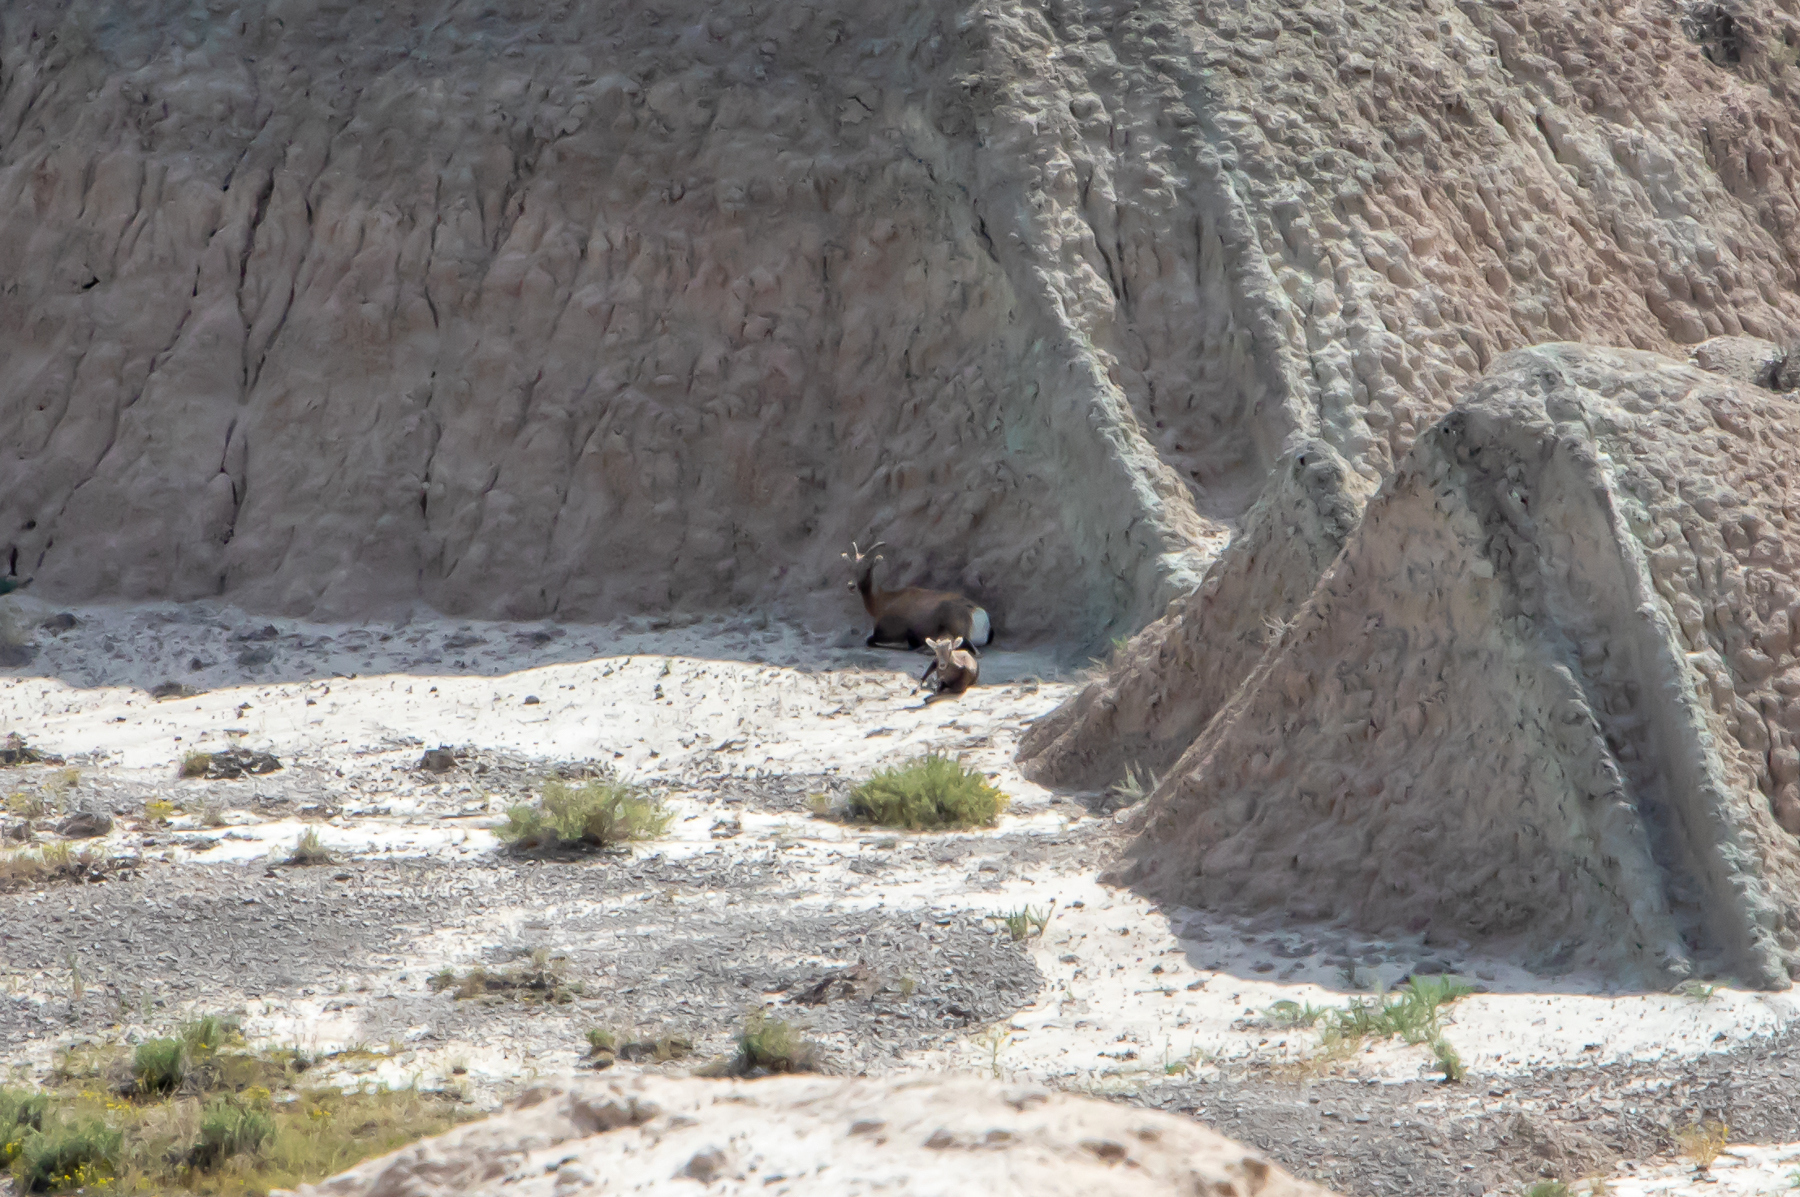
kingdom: Animalia
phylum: Chordata
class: Mammalia
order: Artiodactyla
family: Bovidae
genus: Ovis
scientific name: Ovis canadensis
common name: Bighorn sheep
